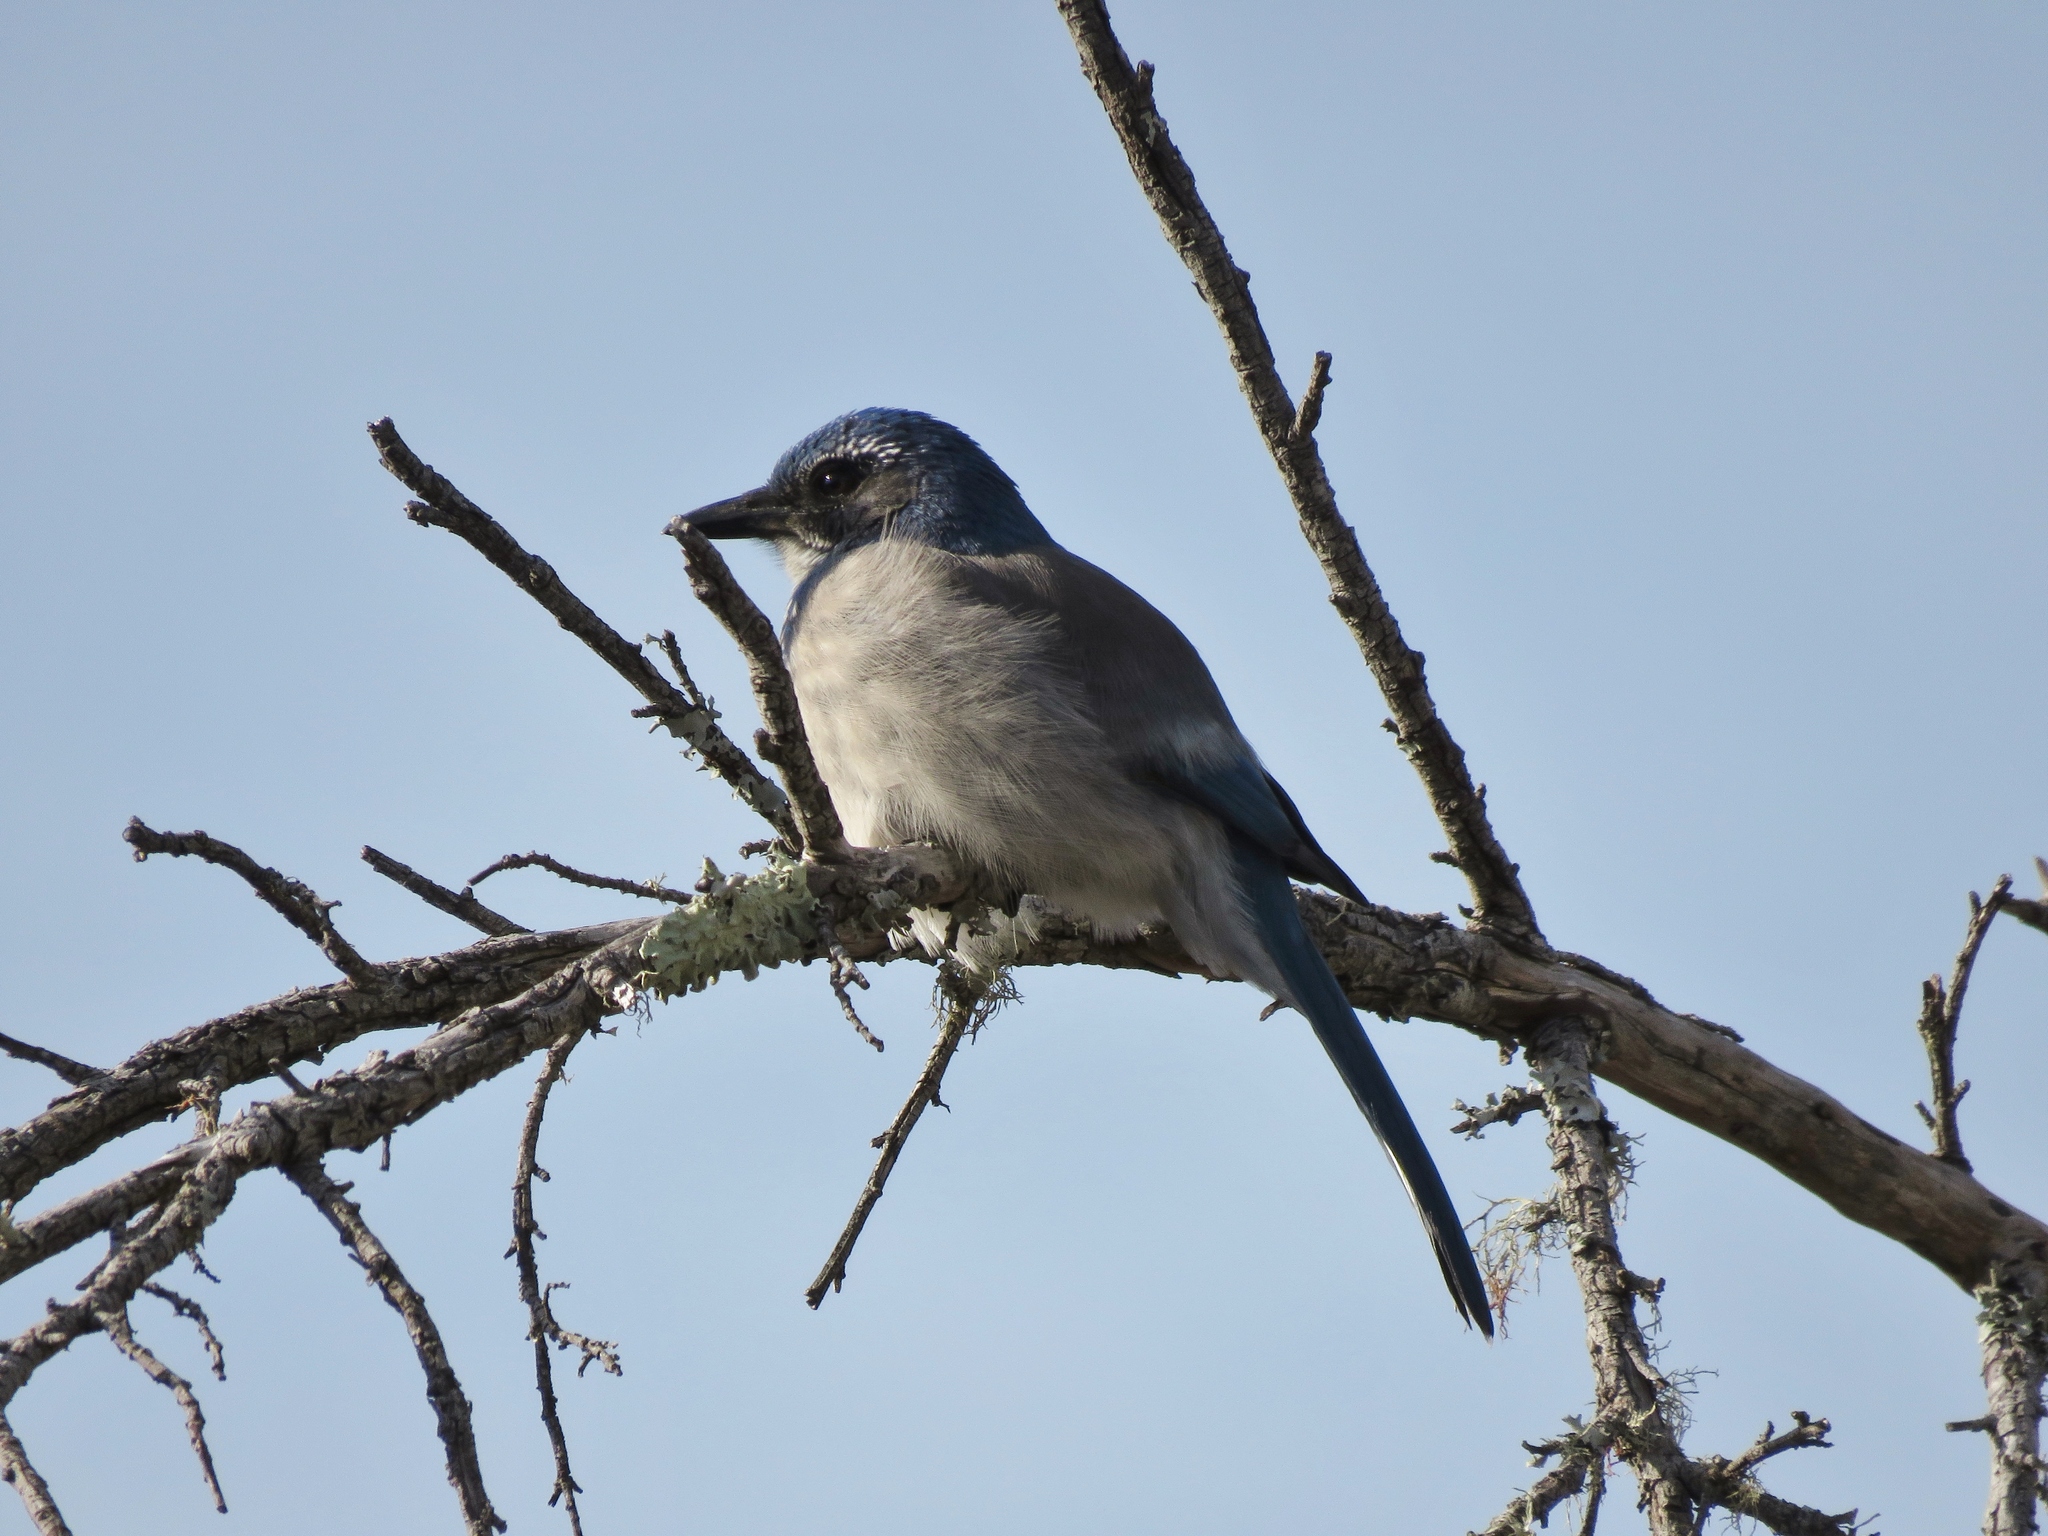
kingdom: Animalia
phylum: Chordata
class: Aves
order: Passeriformes
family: Corvidae
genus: Aphelocoma
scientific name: Aphelocoma californica
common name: California scrub-jay
